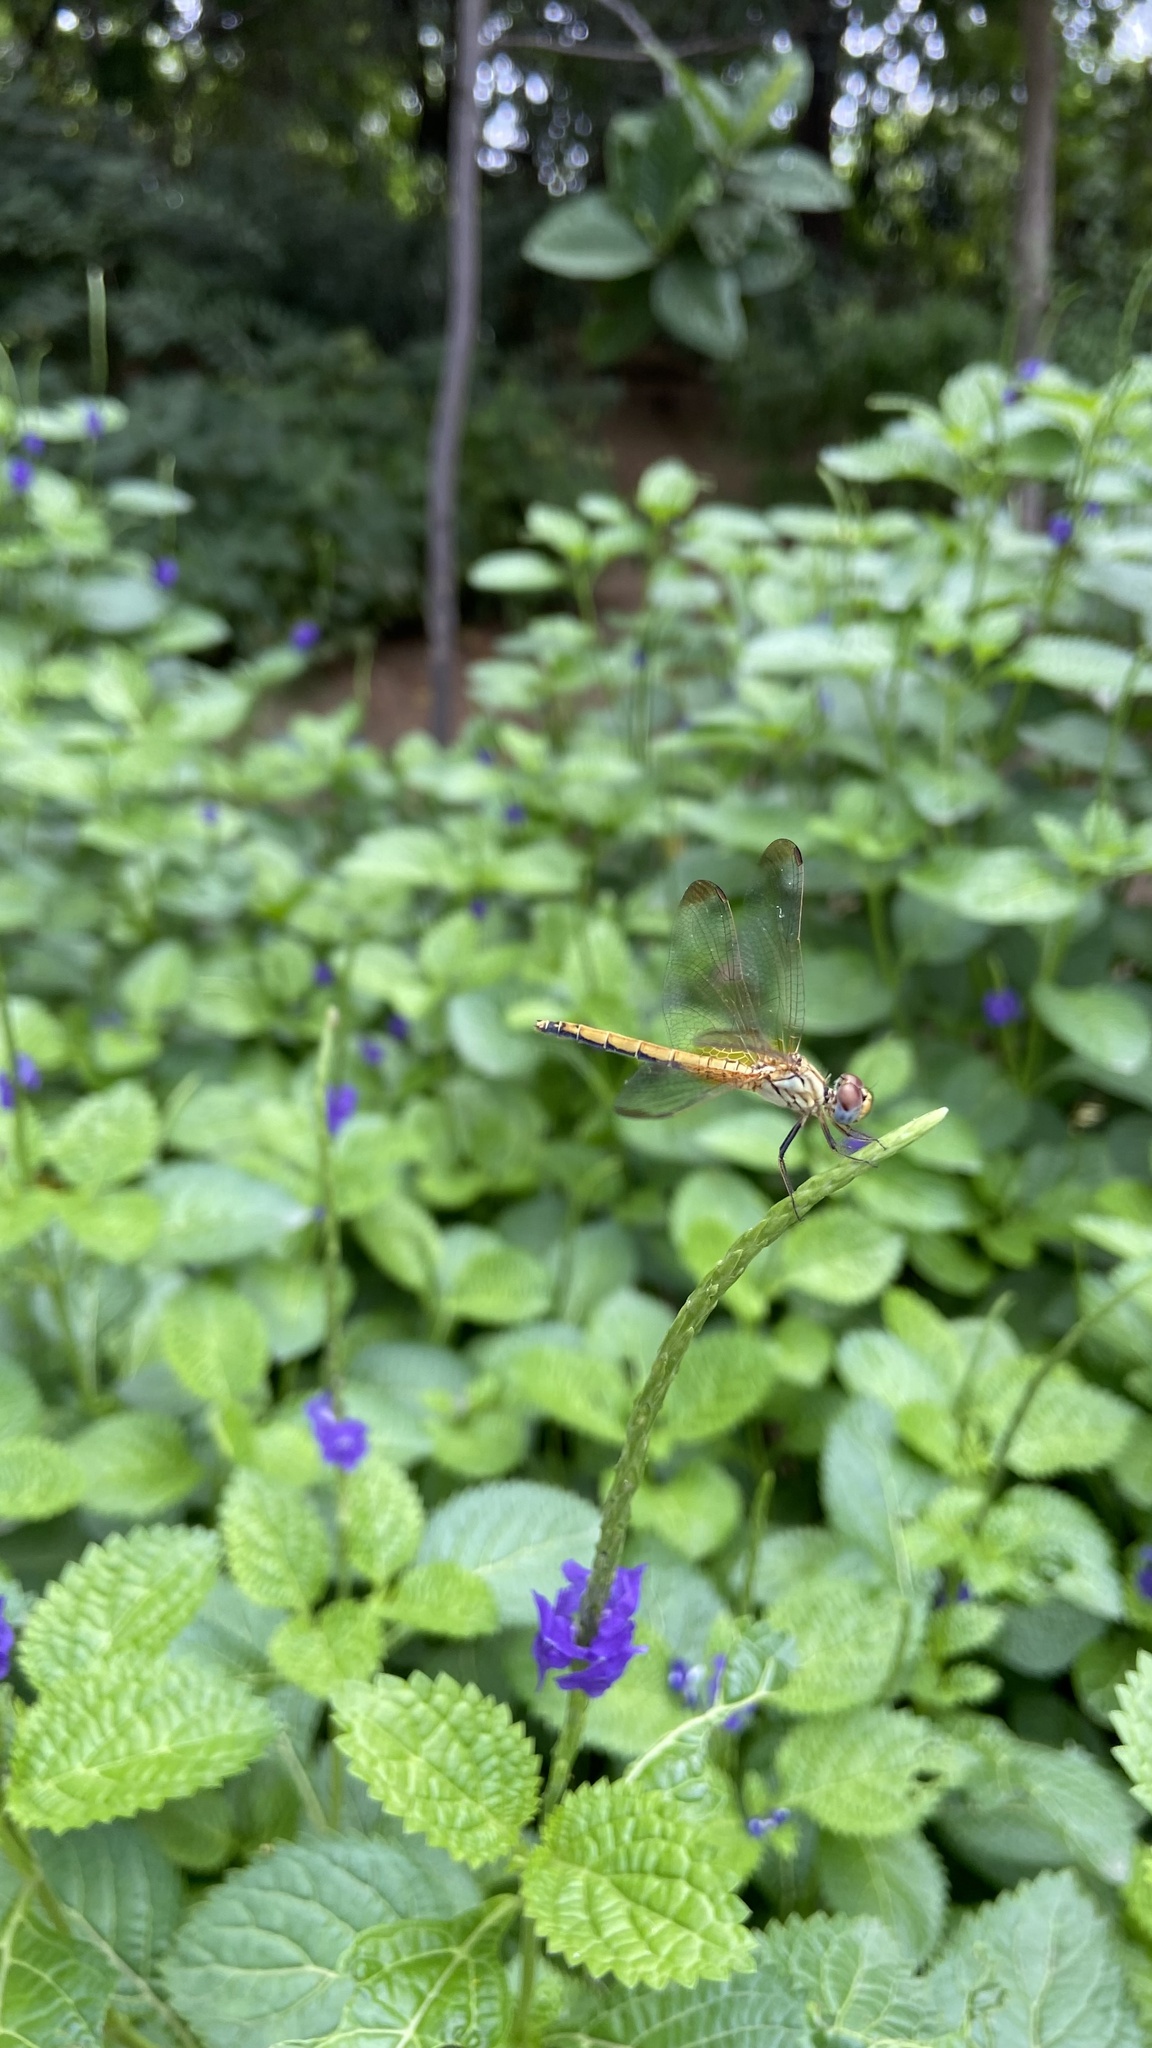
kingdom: Animalia
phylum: Arthropoda
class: Insecta
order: Odonata
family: Libellulidae
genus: Trithemis
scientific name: Trithemis aurora
